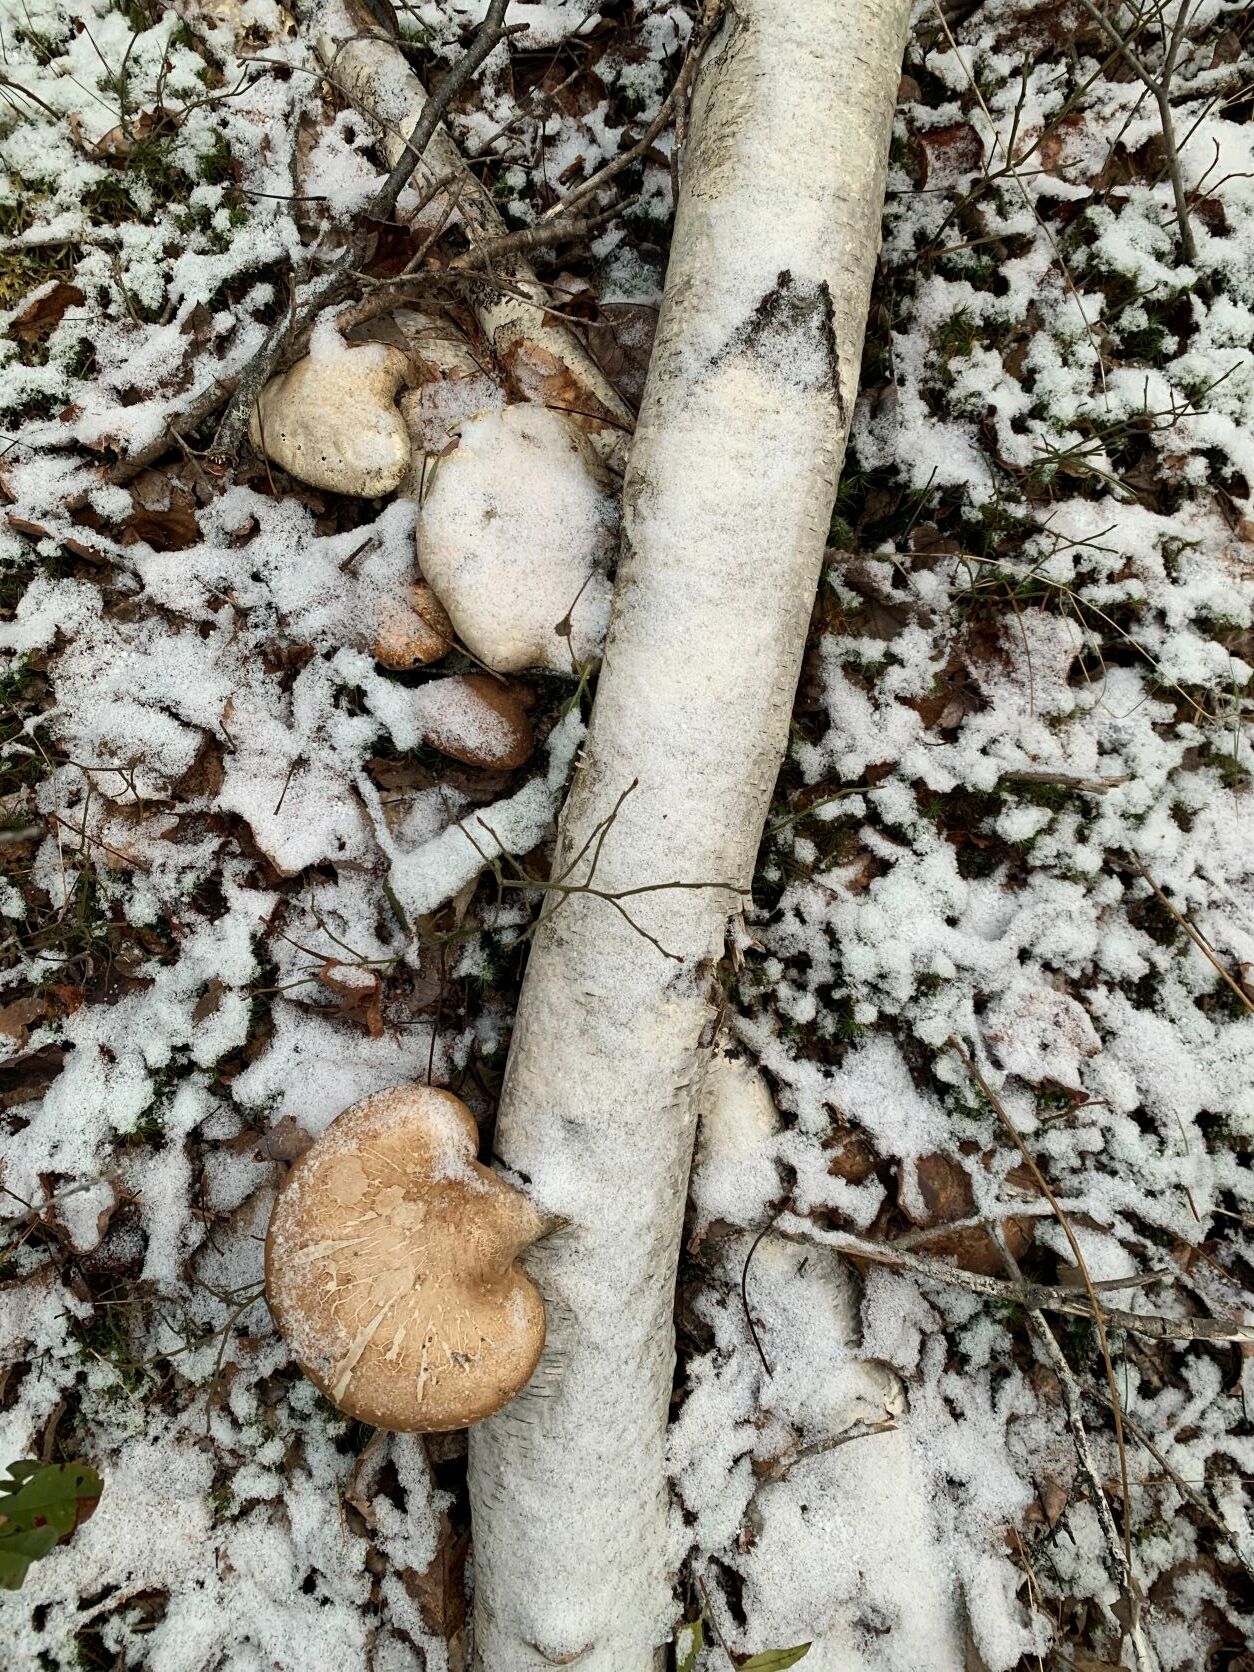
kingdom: Fungi
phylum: Basidiomycota
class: Agaricomycetes
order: Polyporales
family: Fomitopsidaceae
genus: Fomitopsis
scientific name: Fomitopsis betulina
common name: Birch polypore
